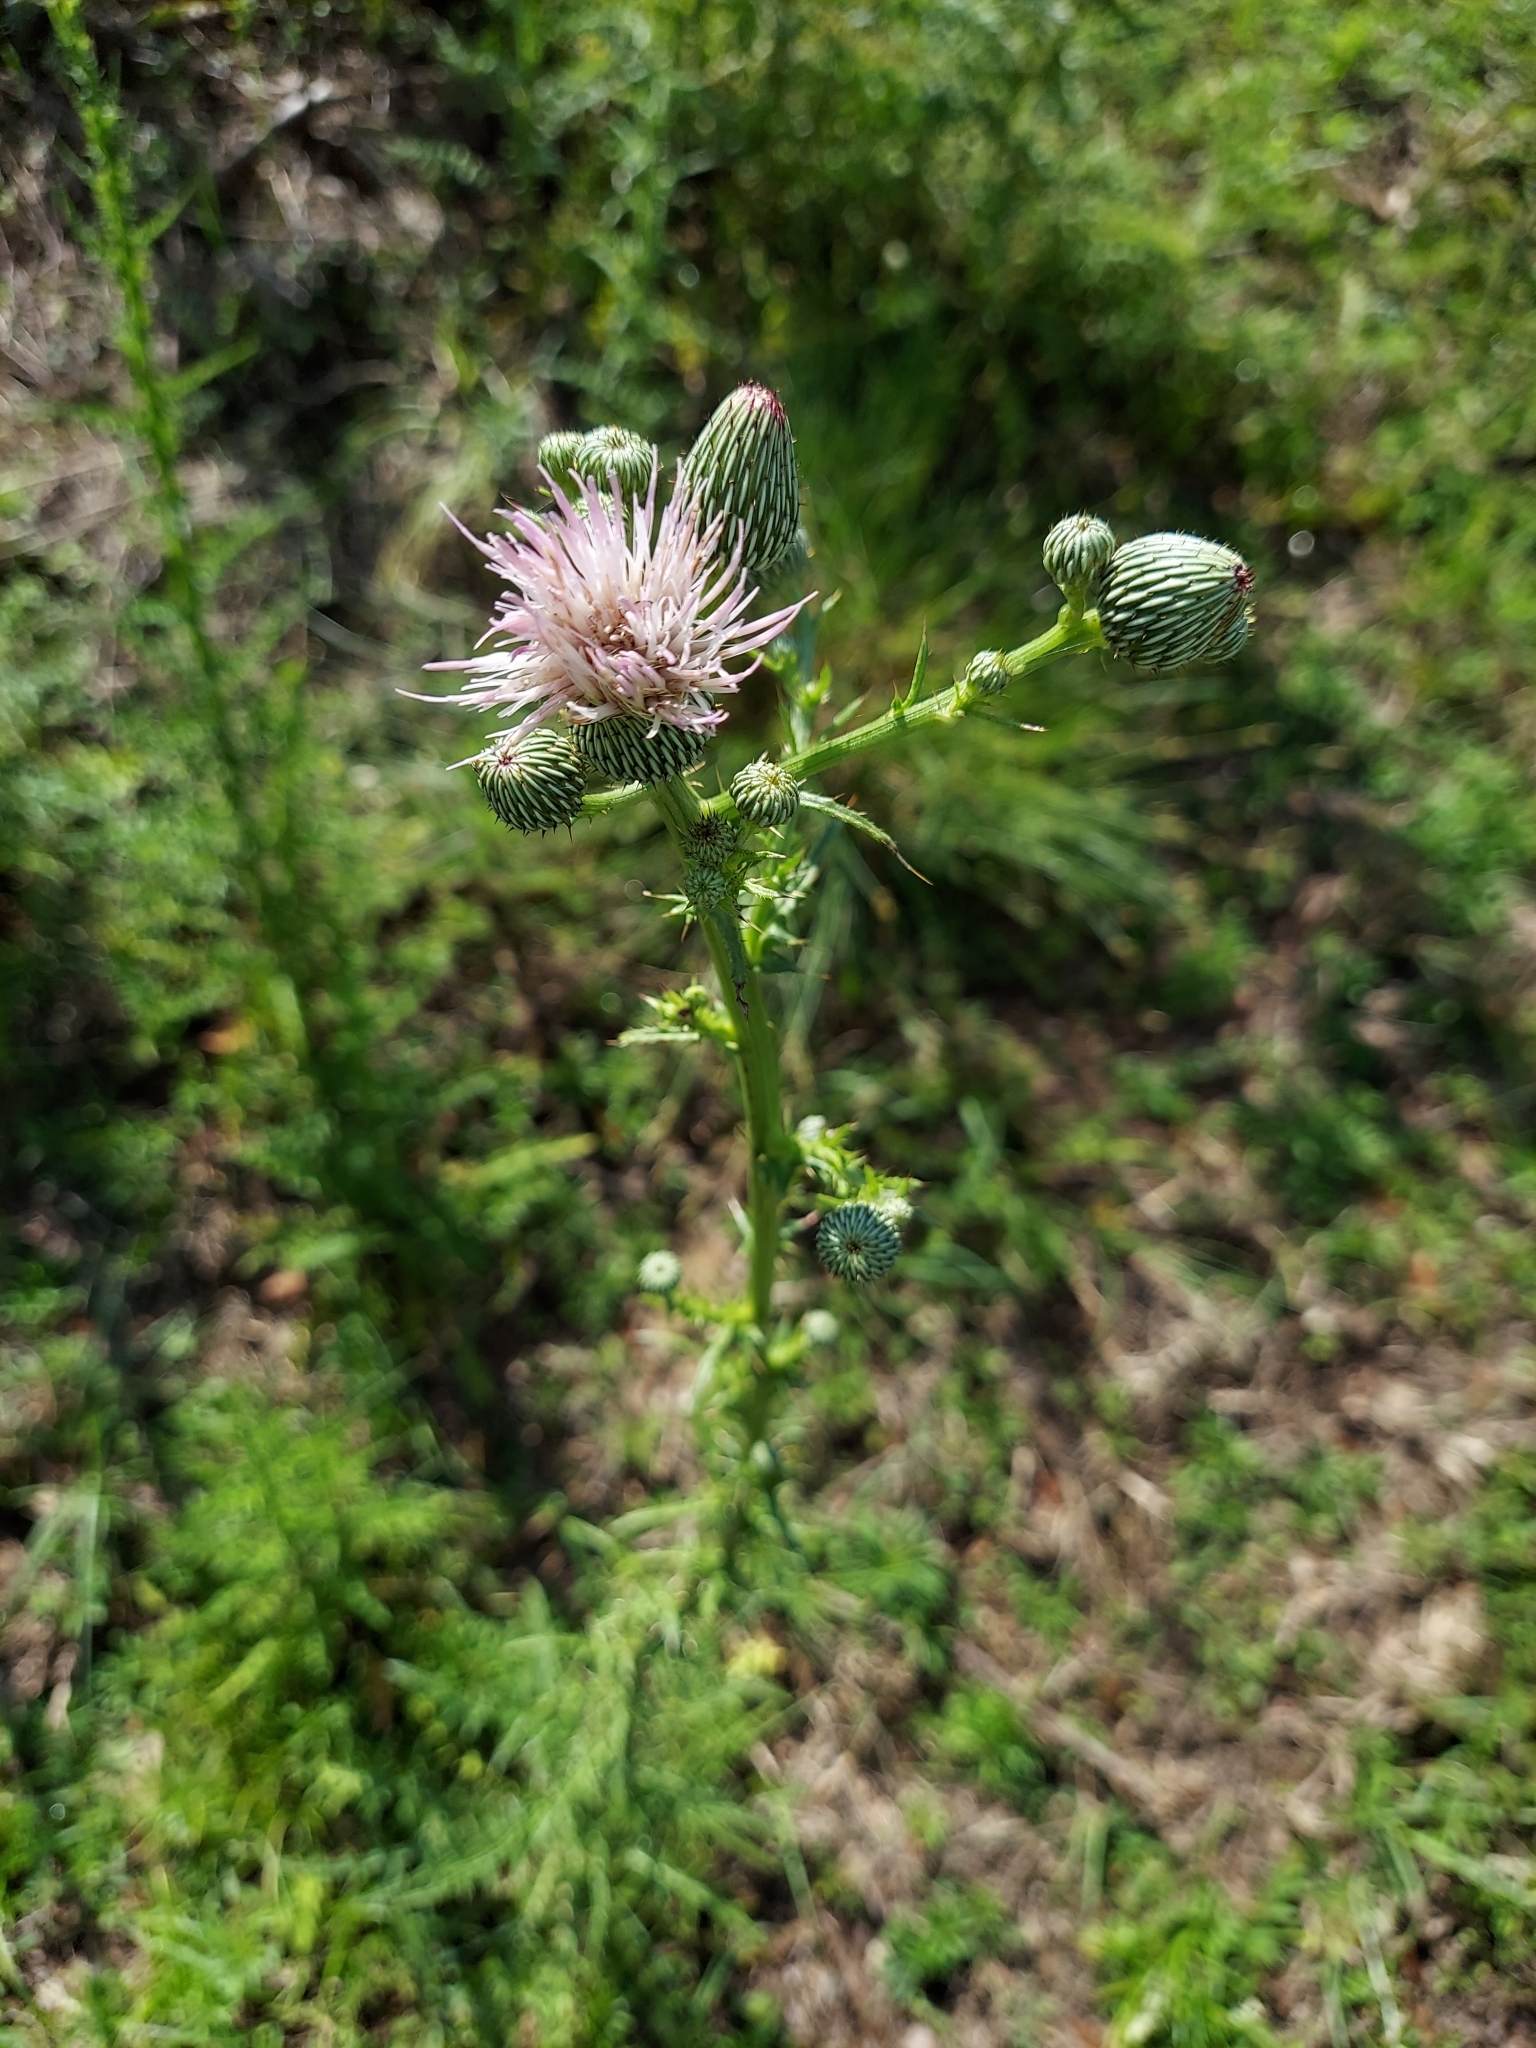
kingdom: Plantae
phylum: Tracheophyta
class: Magnoliopsida
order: Asterales
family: Asteraceae
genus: Cirsium
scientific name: Cirsium nuttalii
